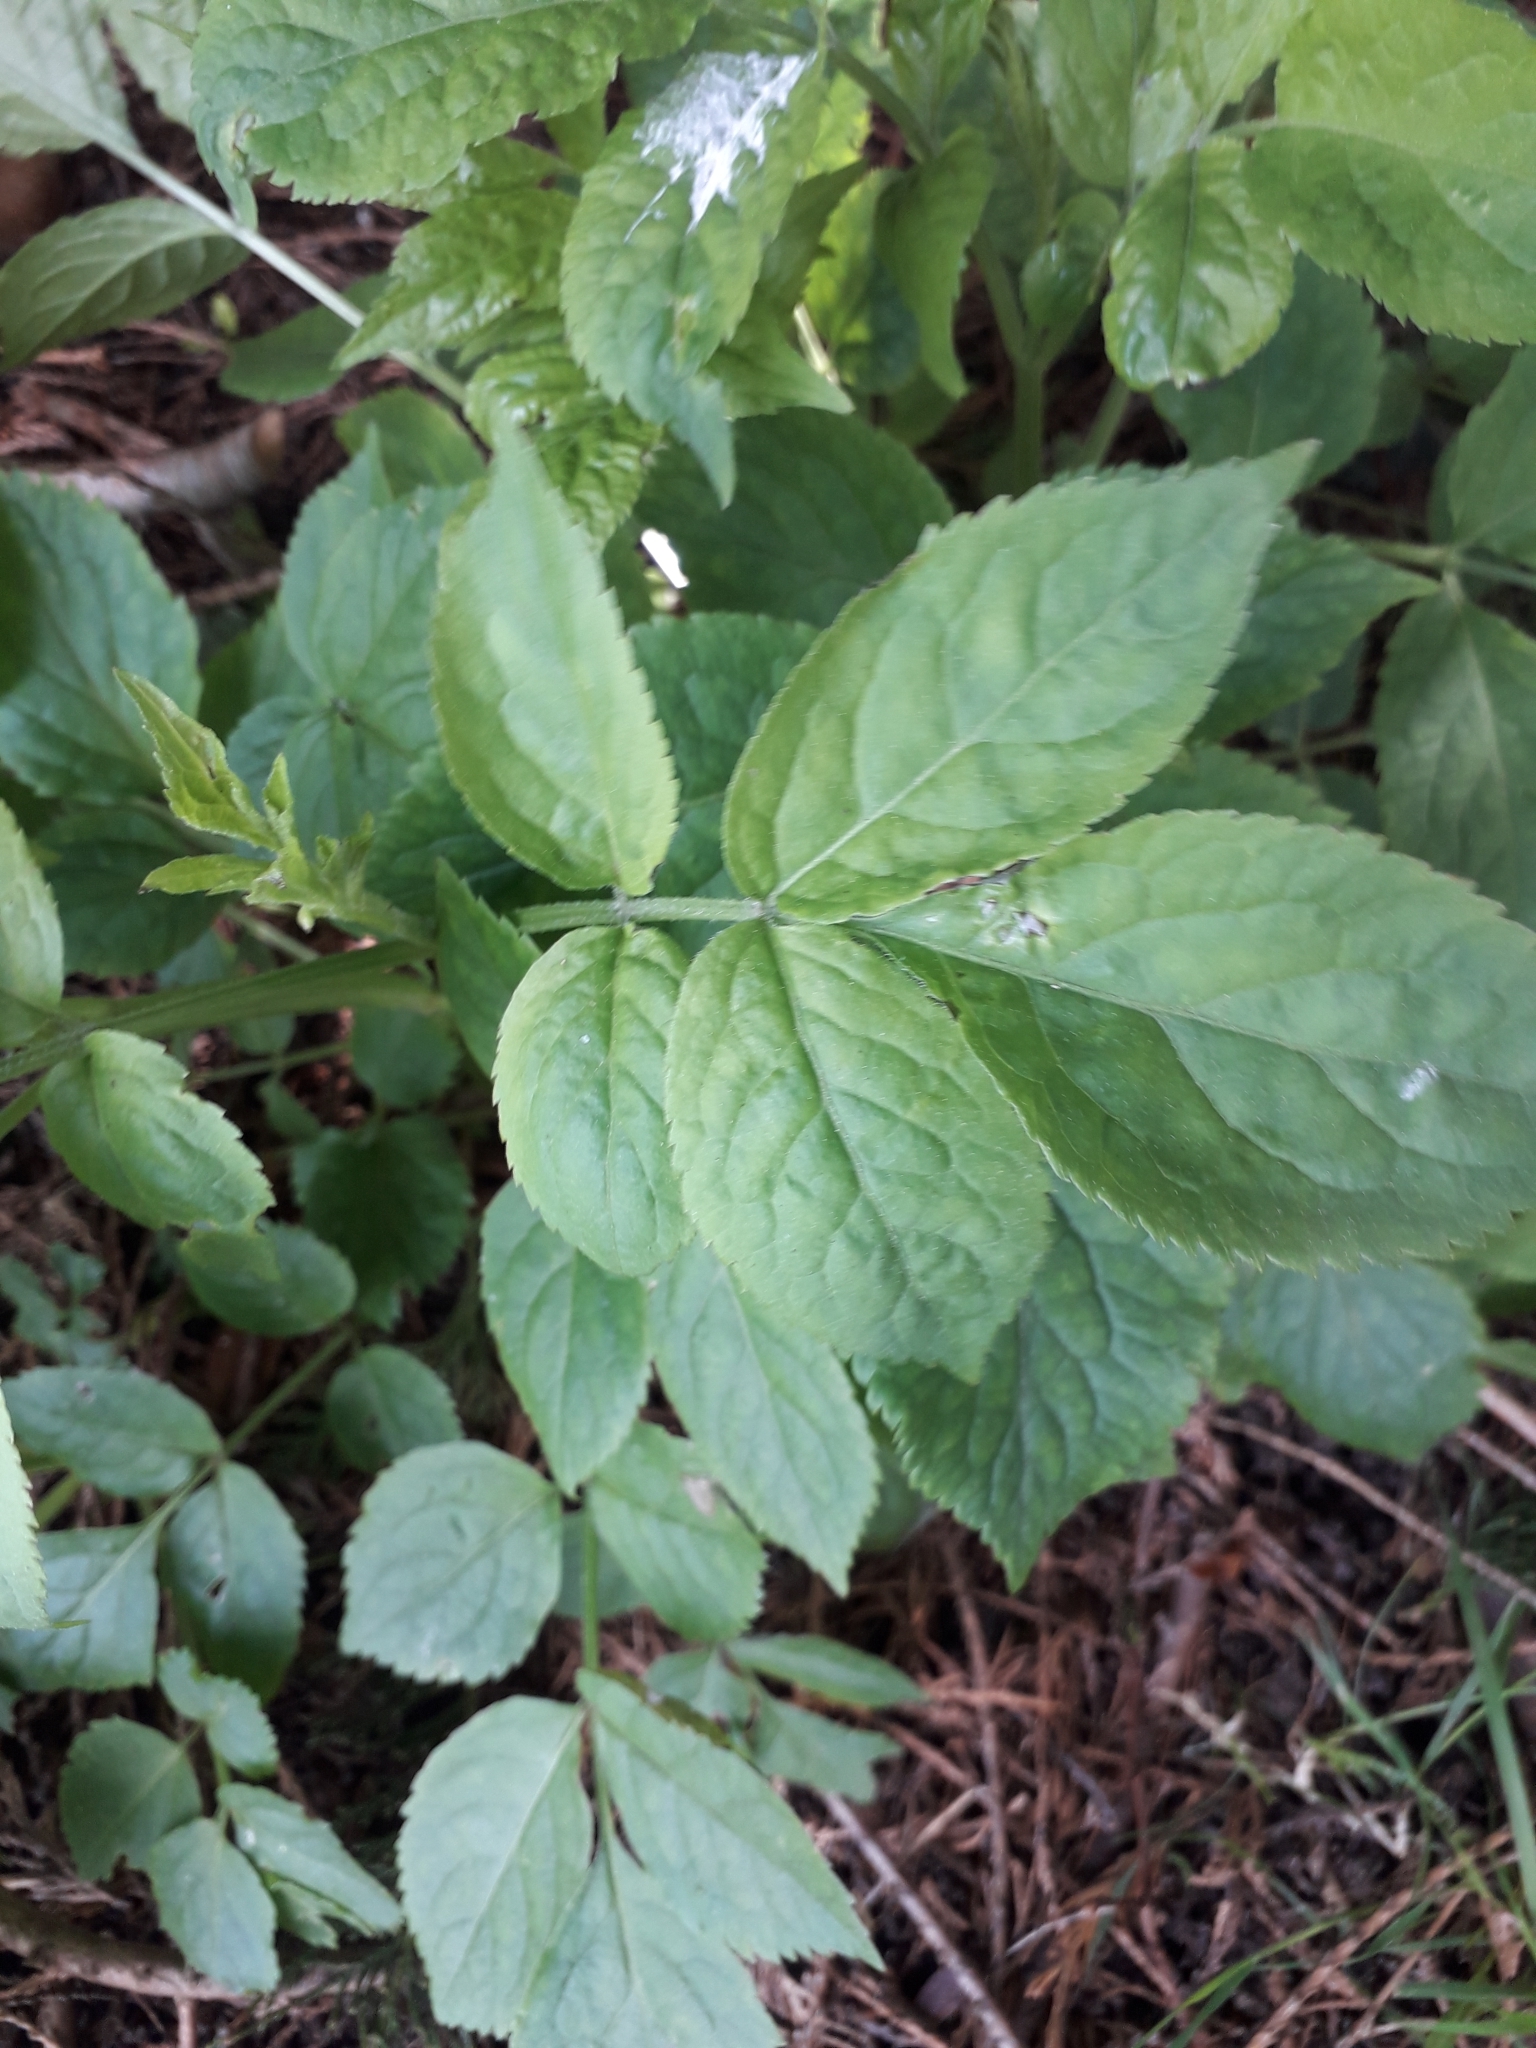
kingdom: Plantae
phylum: Tracheophyta
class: Magnoliopsida
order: Dipsacales
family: Viburnaceae
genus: Sambucus
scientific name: Sambucus nigra
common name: Elder
